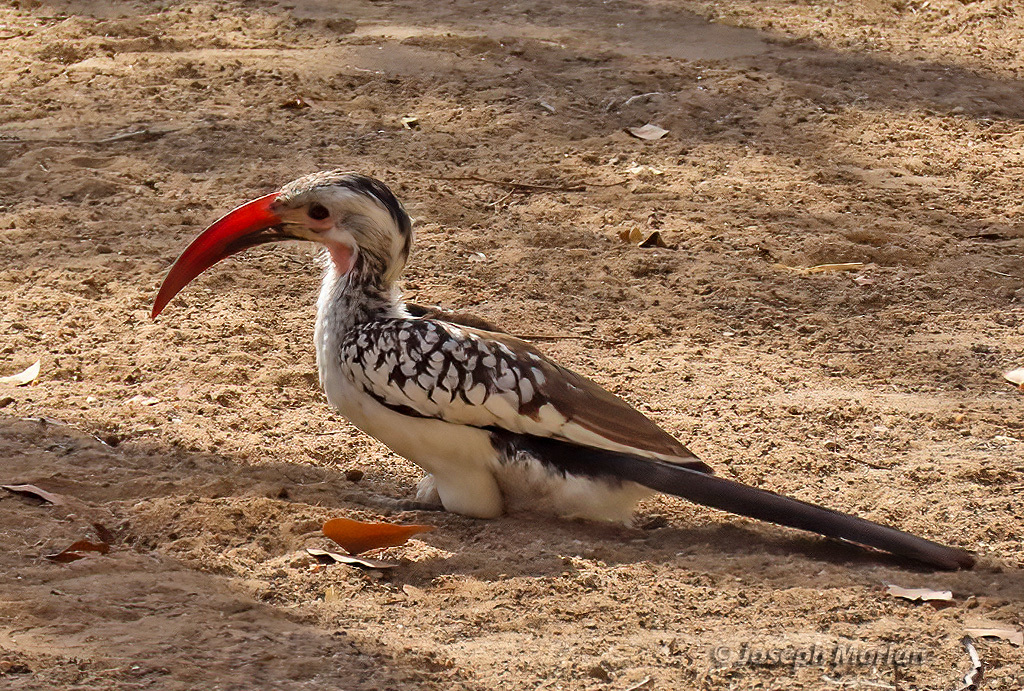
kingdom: Animalia
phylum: Chordata
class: Aves
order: Bucerotiformes
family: Bucerotidae
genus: Tockus
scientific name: Tockus
